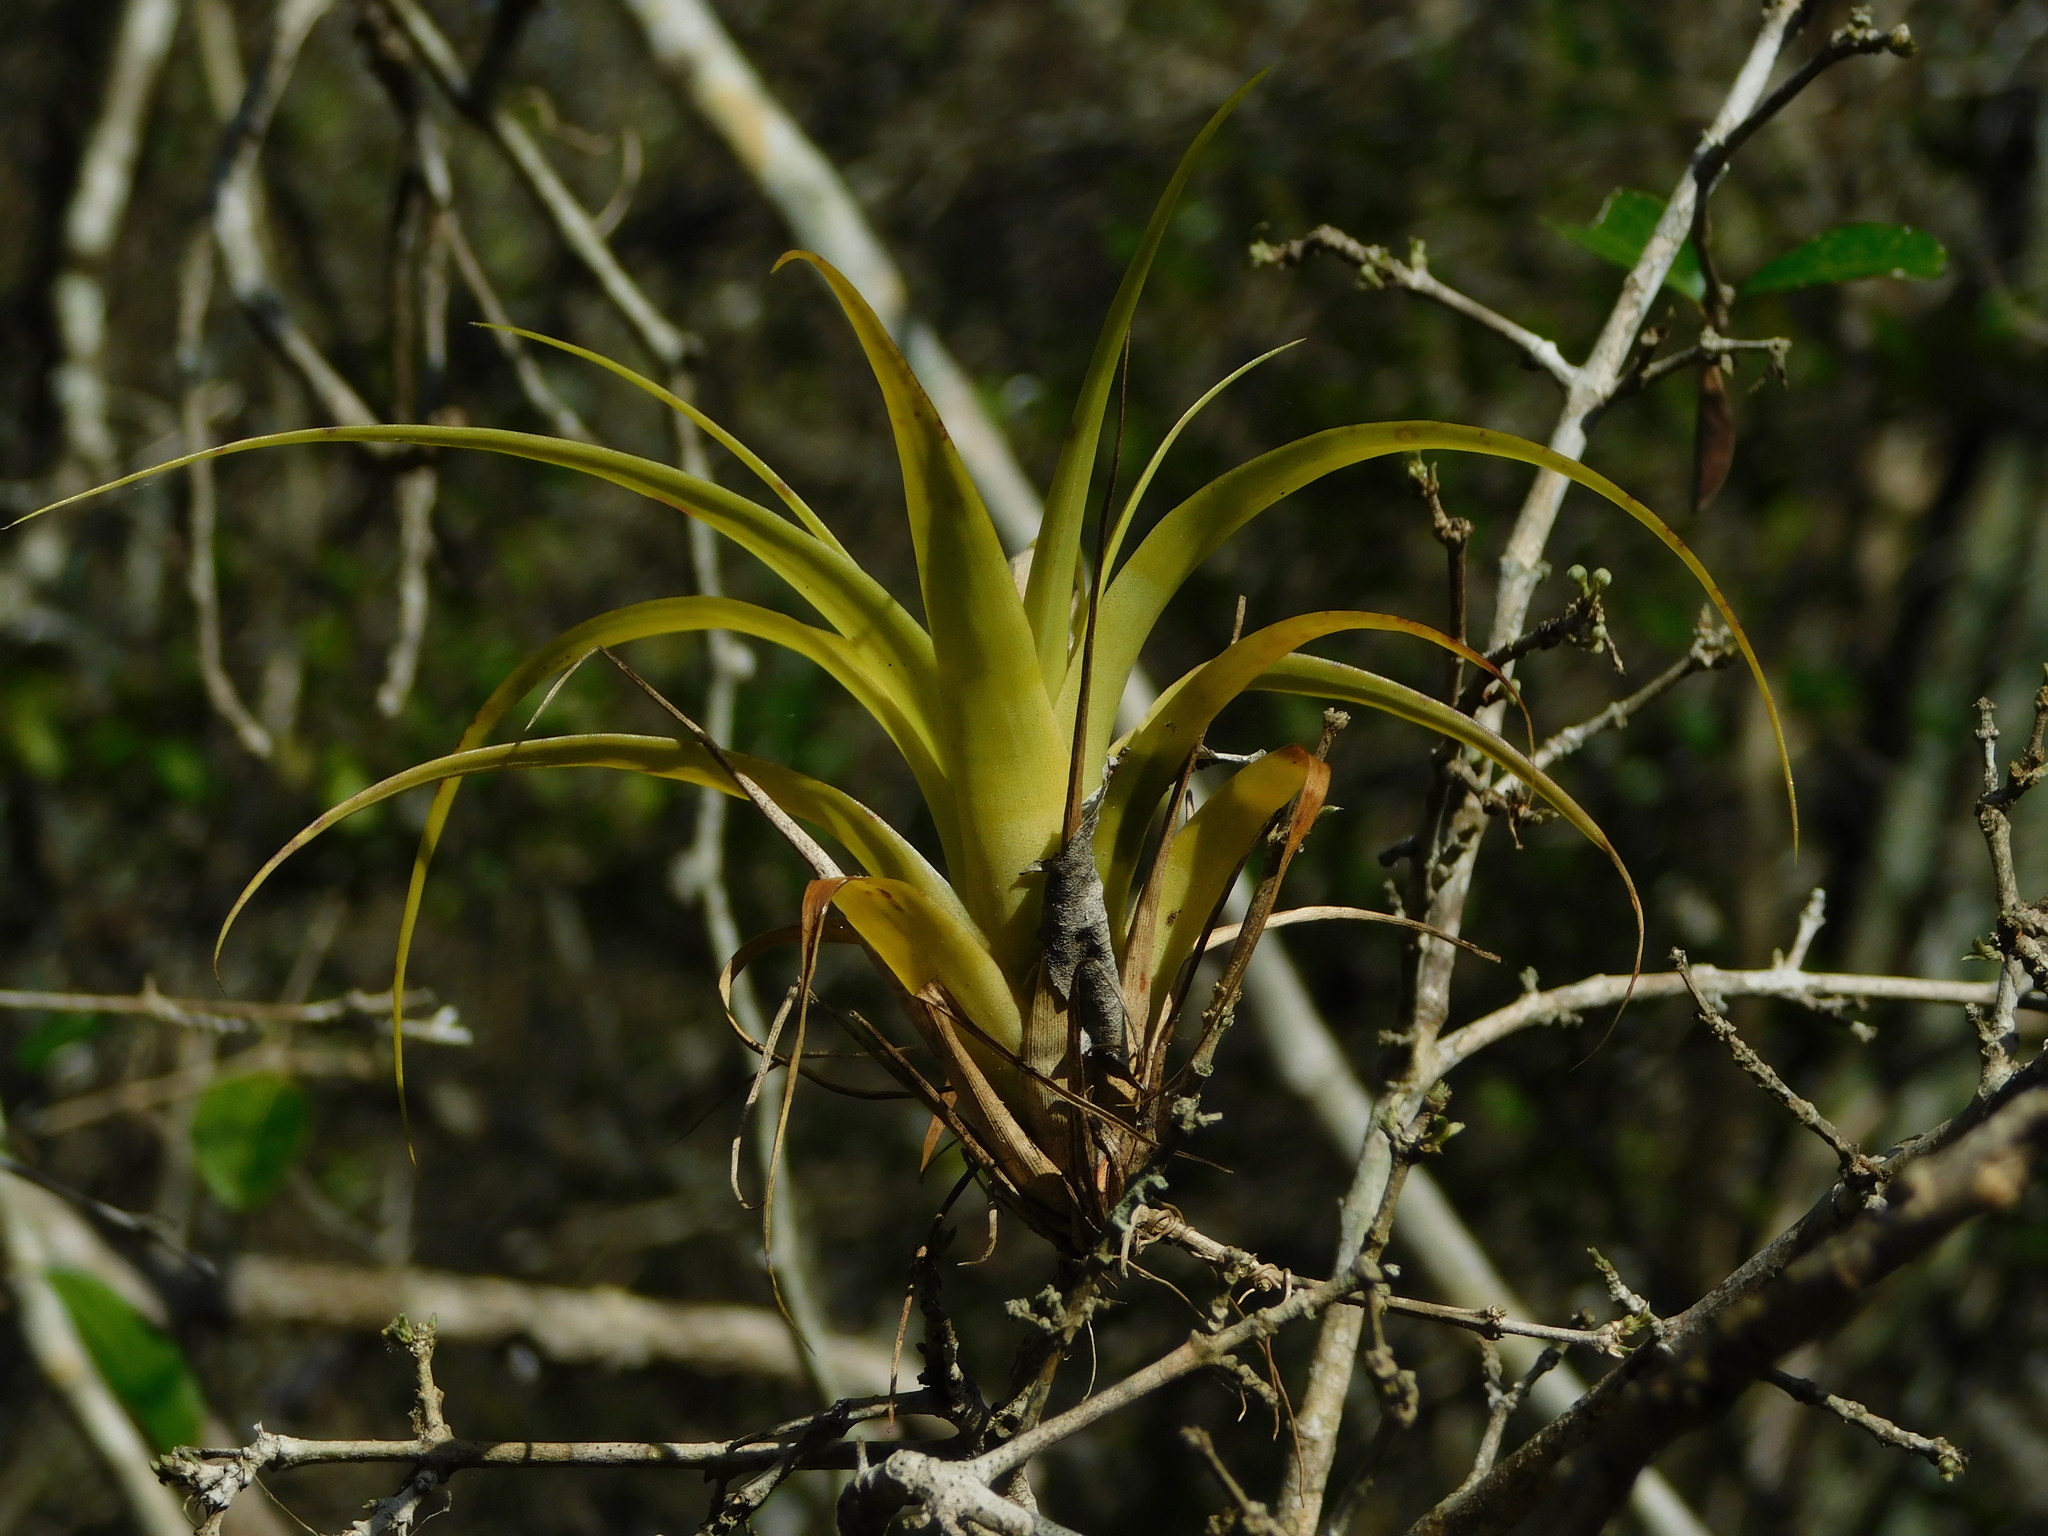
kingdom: Plantae
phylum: Tracheophyta
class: Liliopsida
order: Poales
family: Bromeliaceae
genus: Tillandsia
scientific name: Tillandsia elongata
